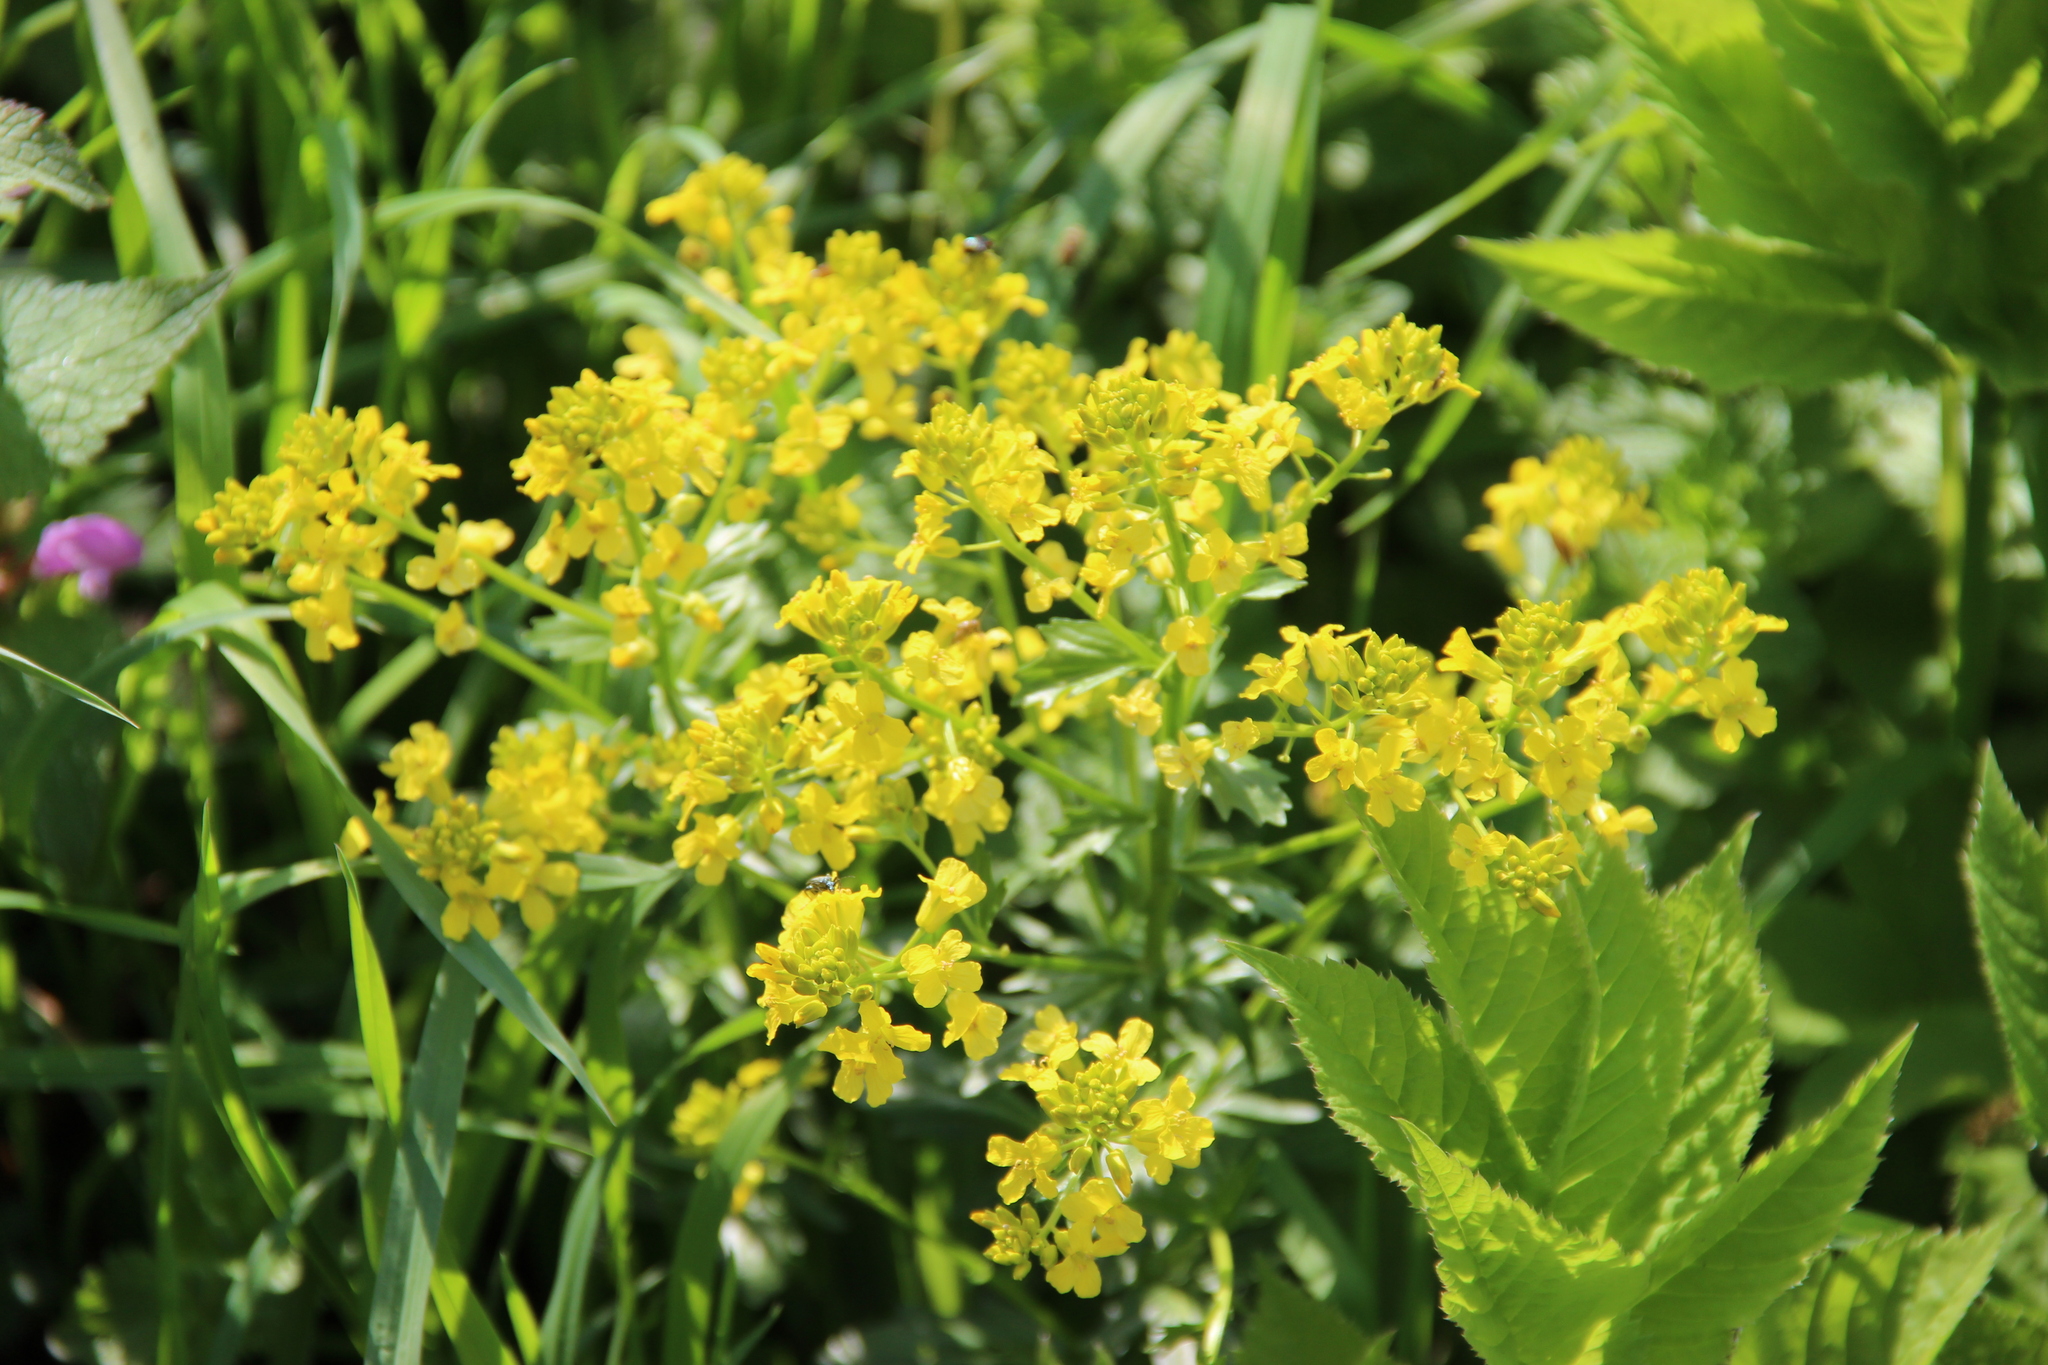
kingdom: Plantae
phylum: Tracheophyta
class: Magnoliopsida
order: Brassicales
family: Brassicaceae
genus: Barbarea
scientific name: Barbarea vulgaris
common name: Cressy-greens
